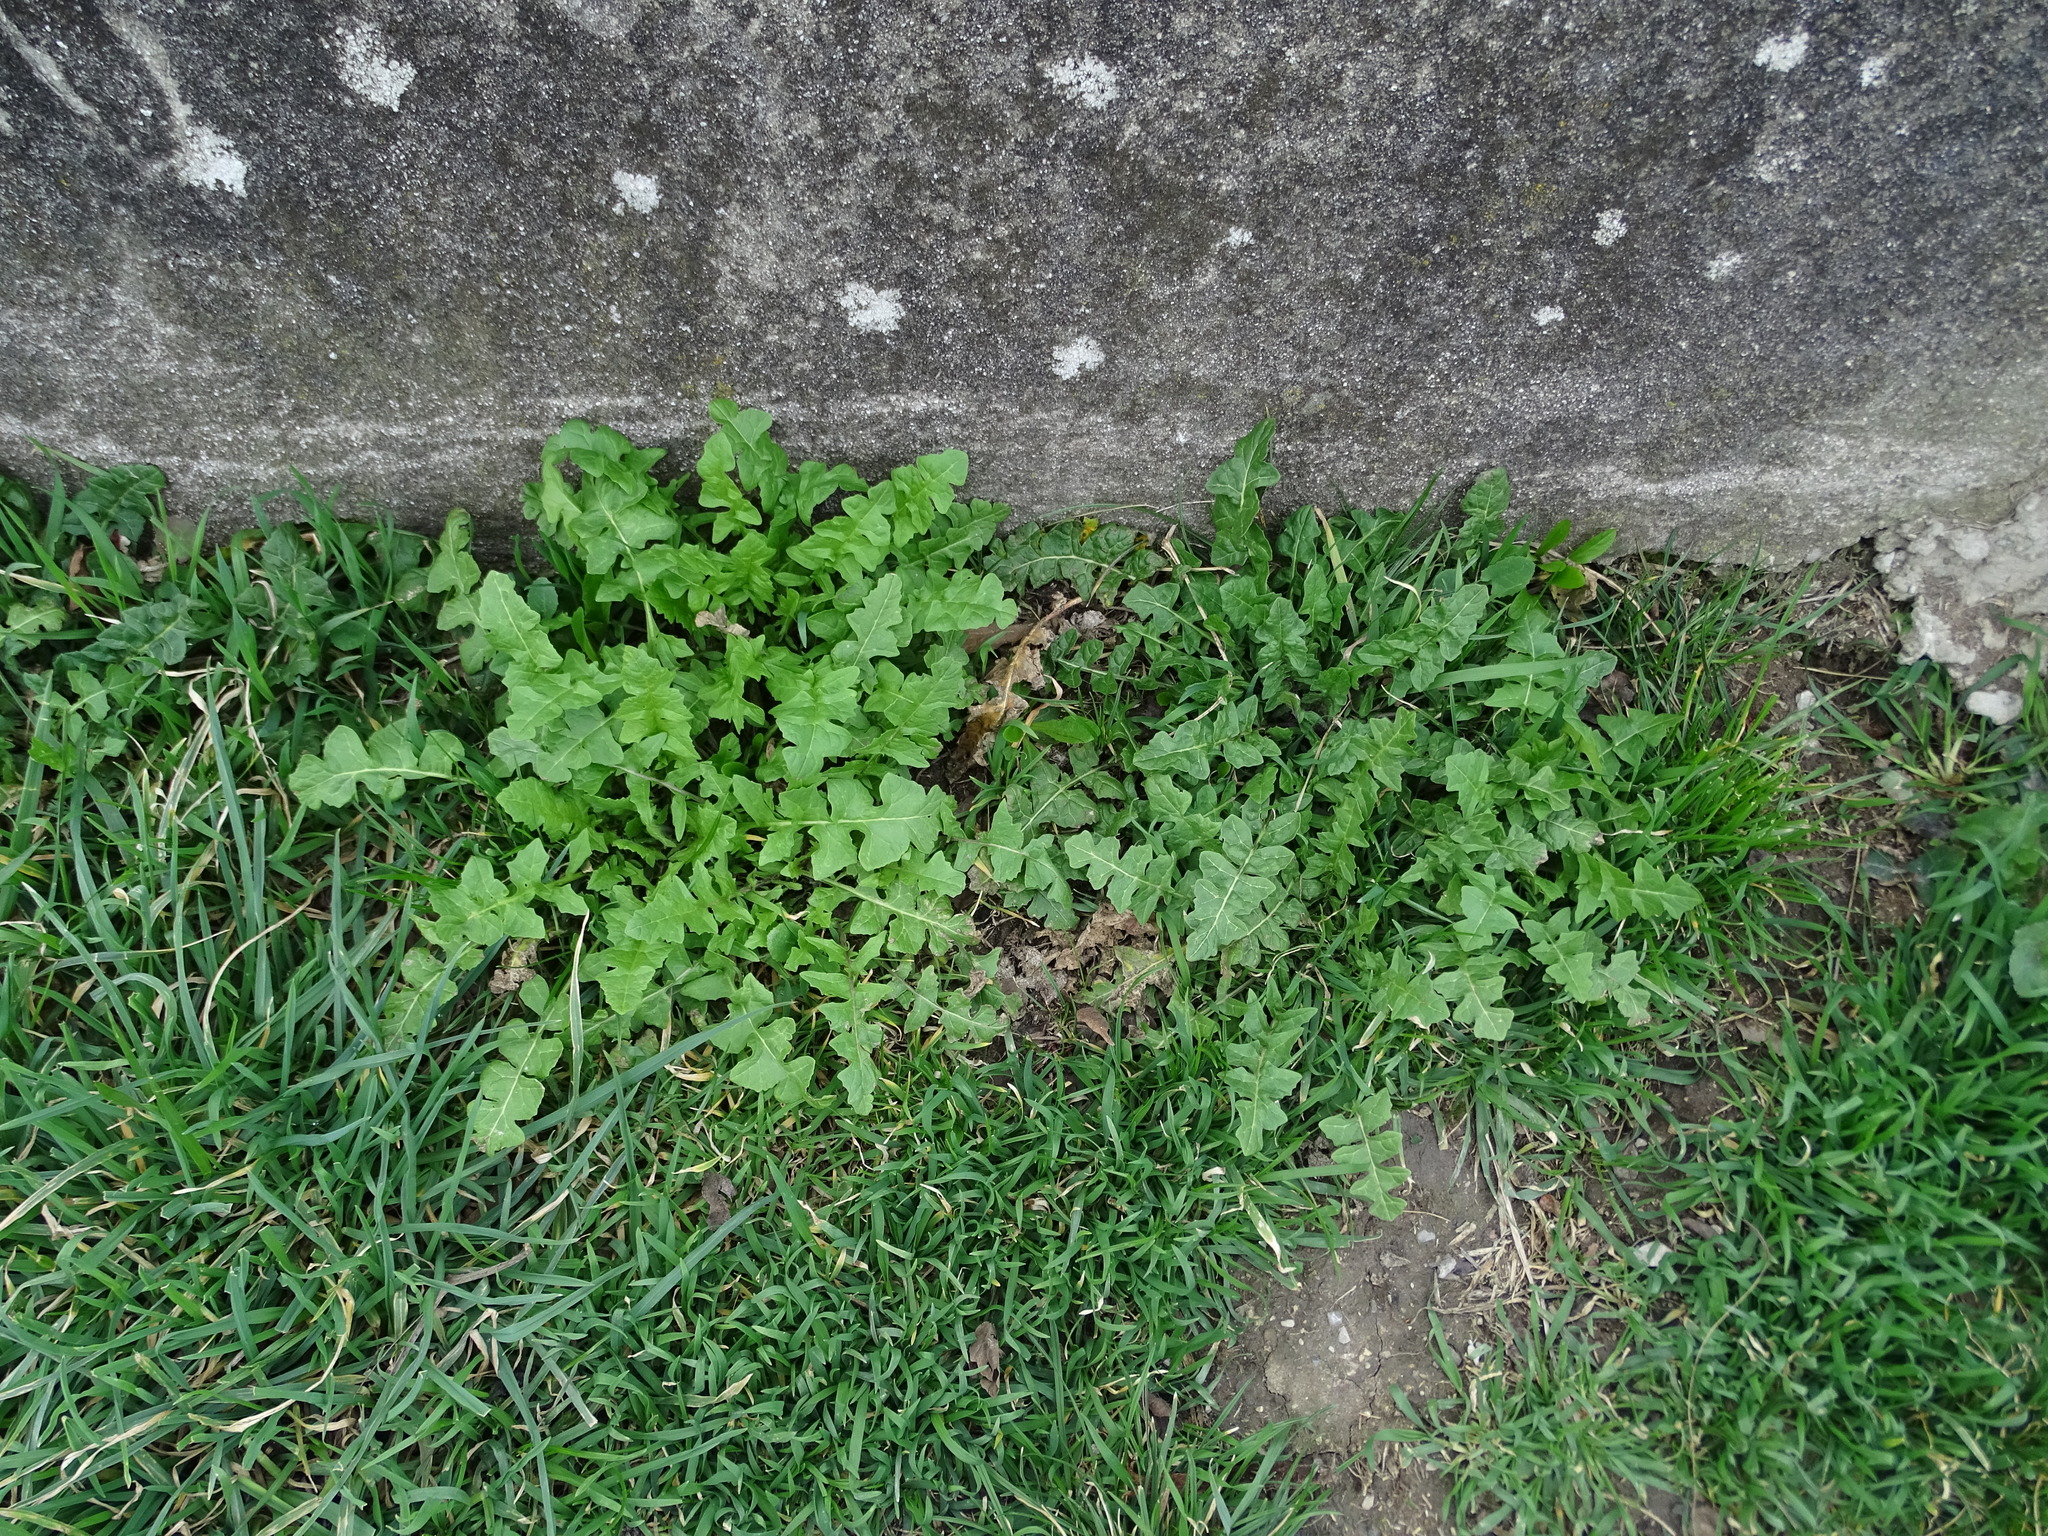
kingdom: Plantae
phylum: Tracheophyta
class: Magnoliopsida
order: Brassicales
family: Brassicaceae
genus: Capsella
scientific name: Capsella bursa-pastoris
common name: Shepherd's purse
